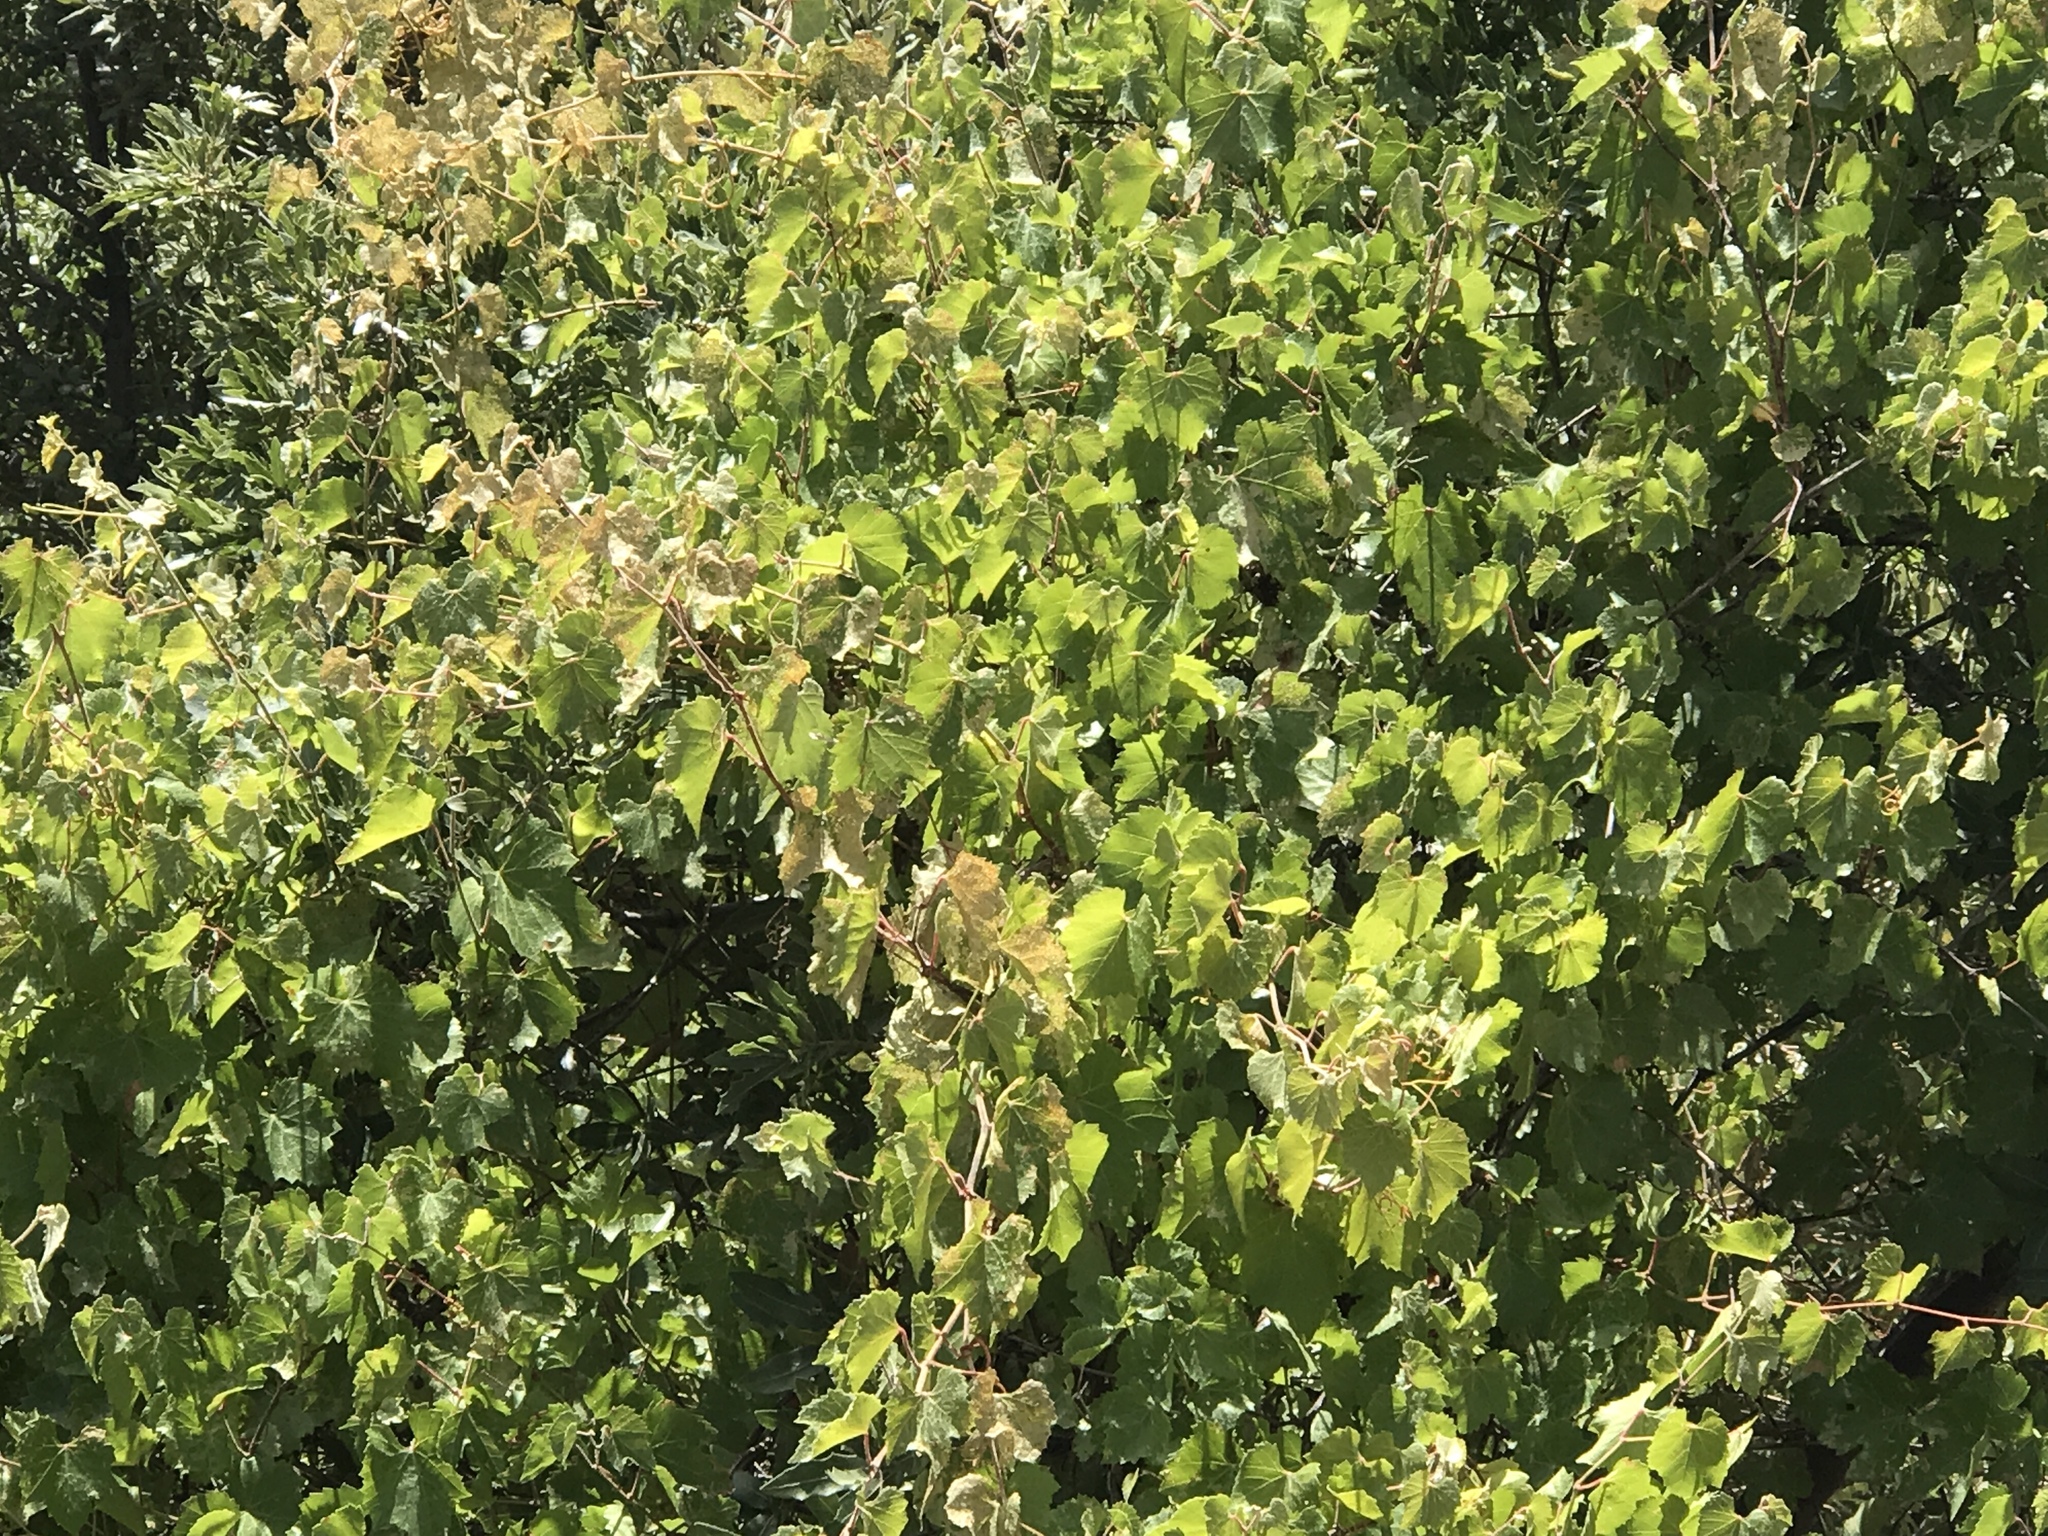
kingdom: Plantae
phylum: Tracheophyta
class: Magnoliopsida
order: Vitales
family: Vitaceae
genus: Vitis
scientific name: Vitis arizonica
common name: Canyon grape
